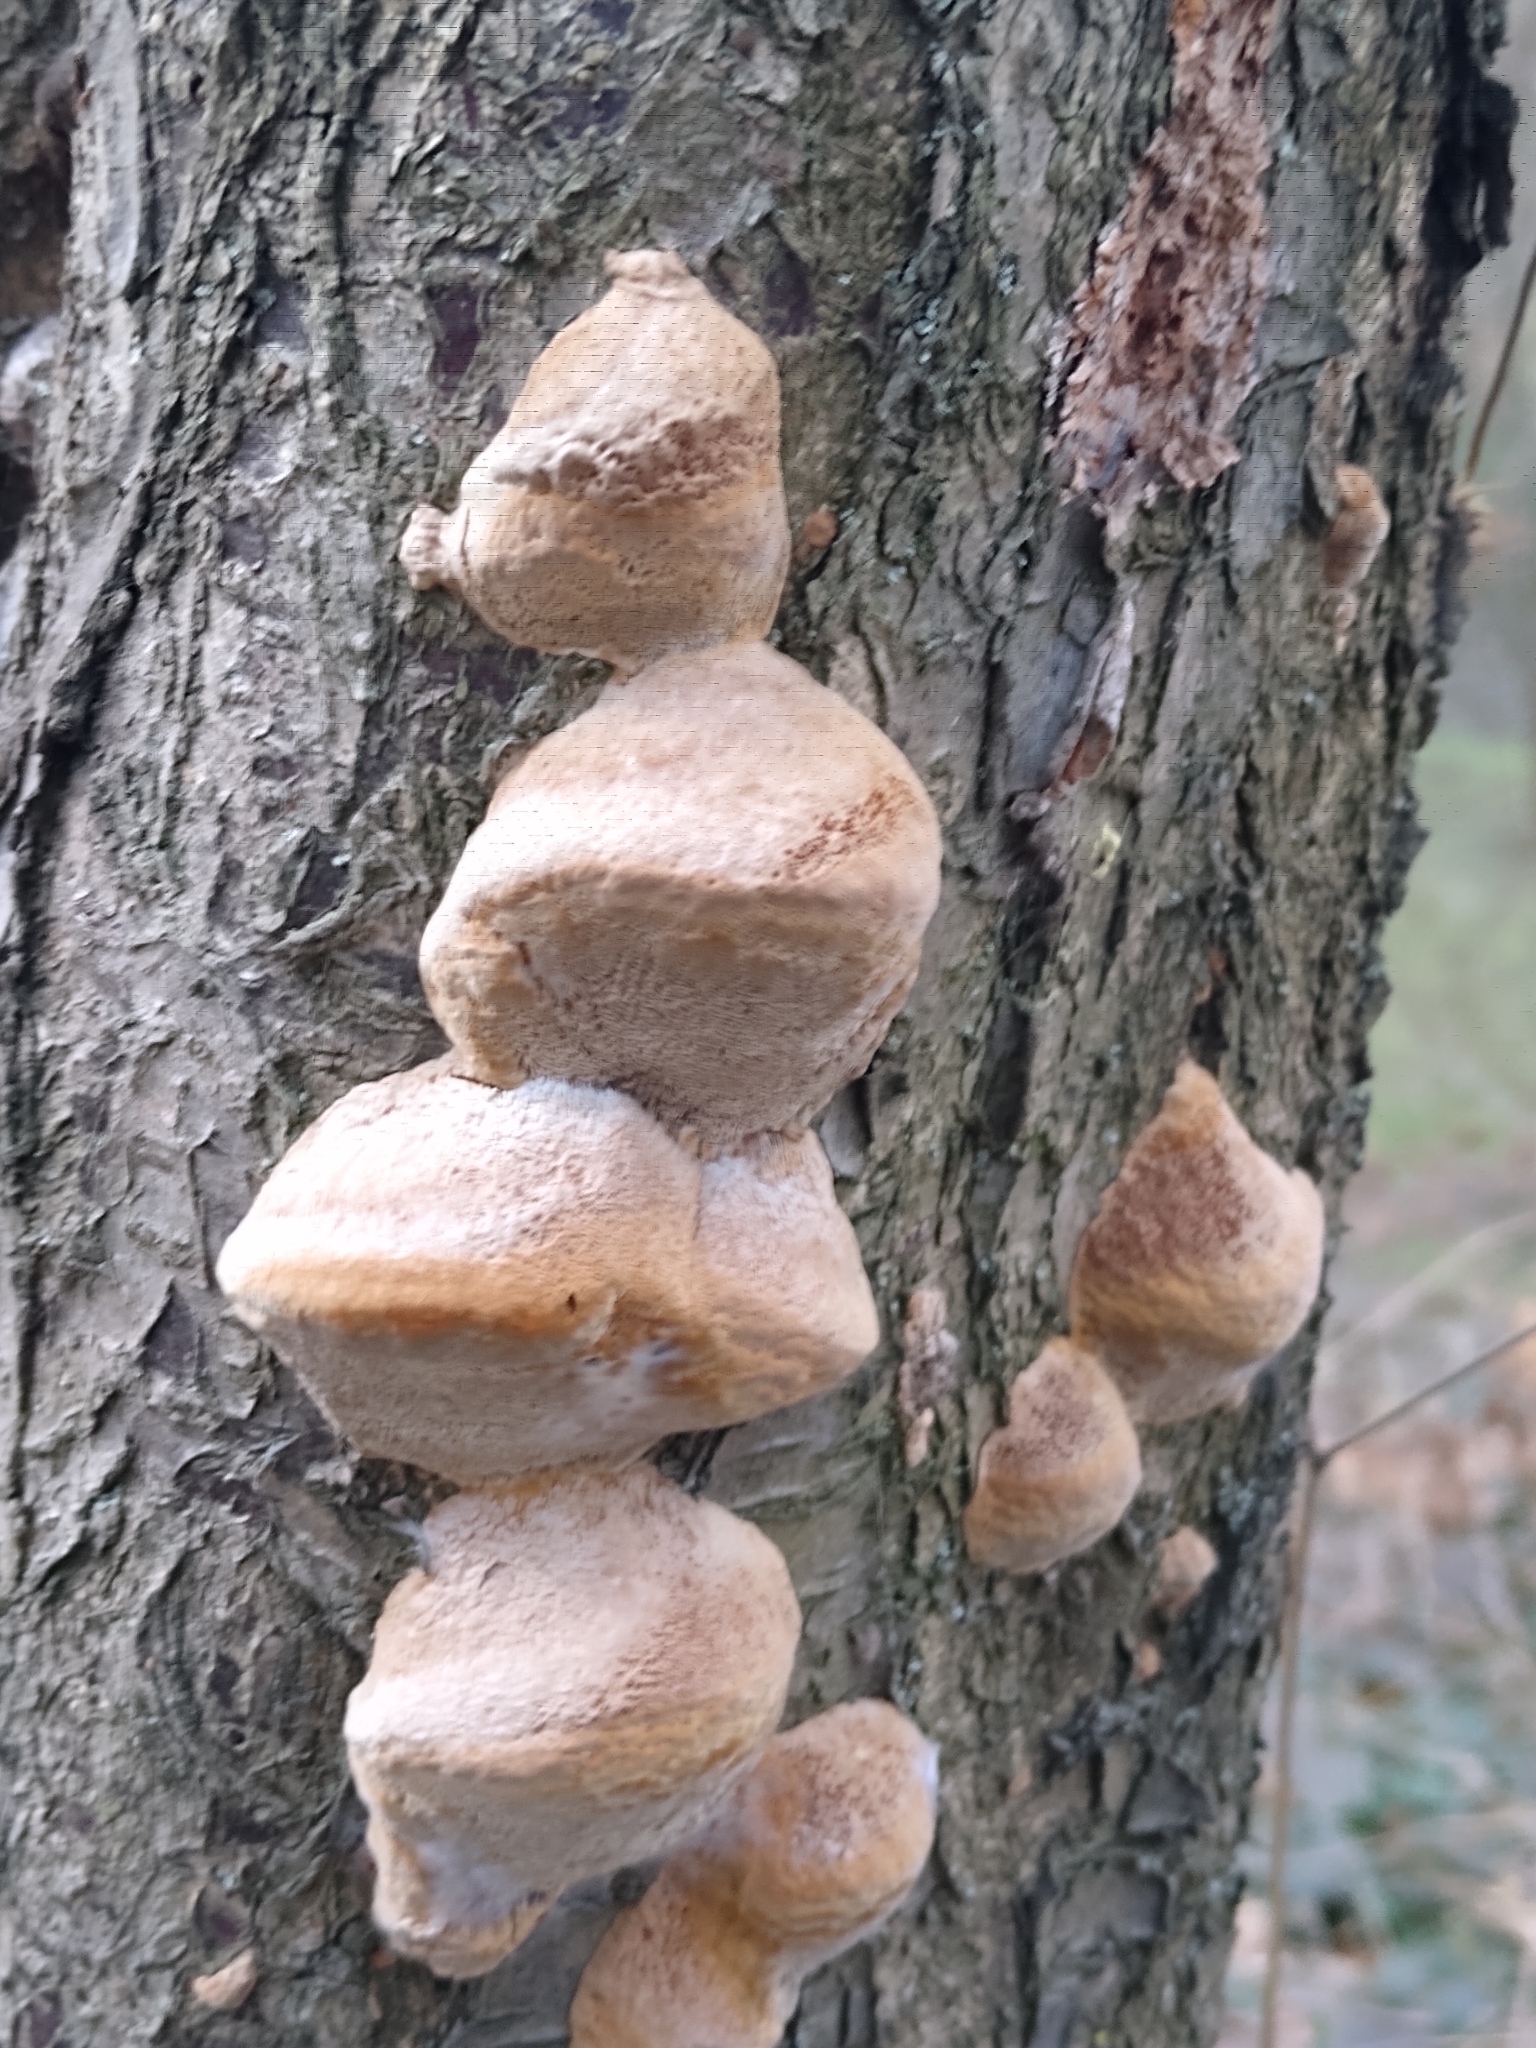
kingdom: Fungi
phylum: Basidiomycota
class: Agaricomycetes
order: Hymenochaetales
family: Hymenochaetaceae
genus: Phellinus
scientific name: Phellinus pomaceus
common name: Cushion bracket
